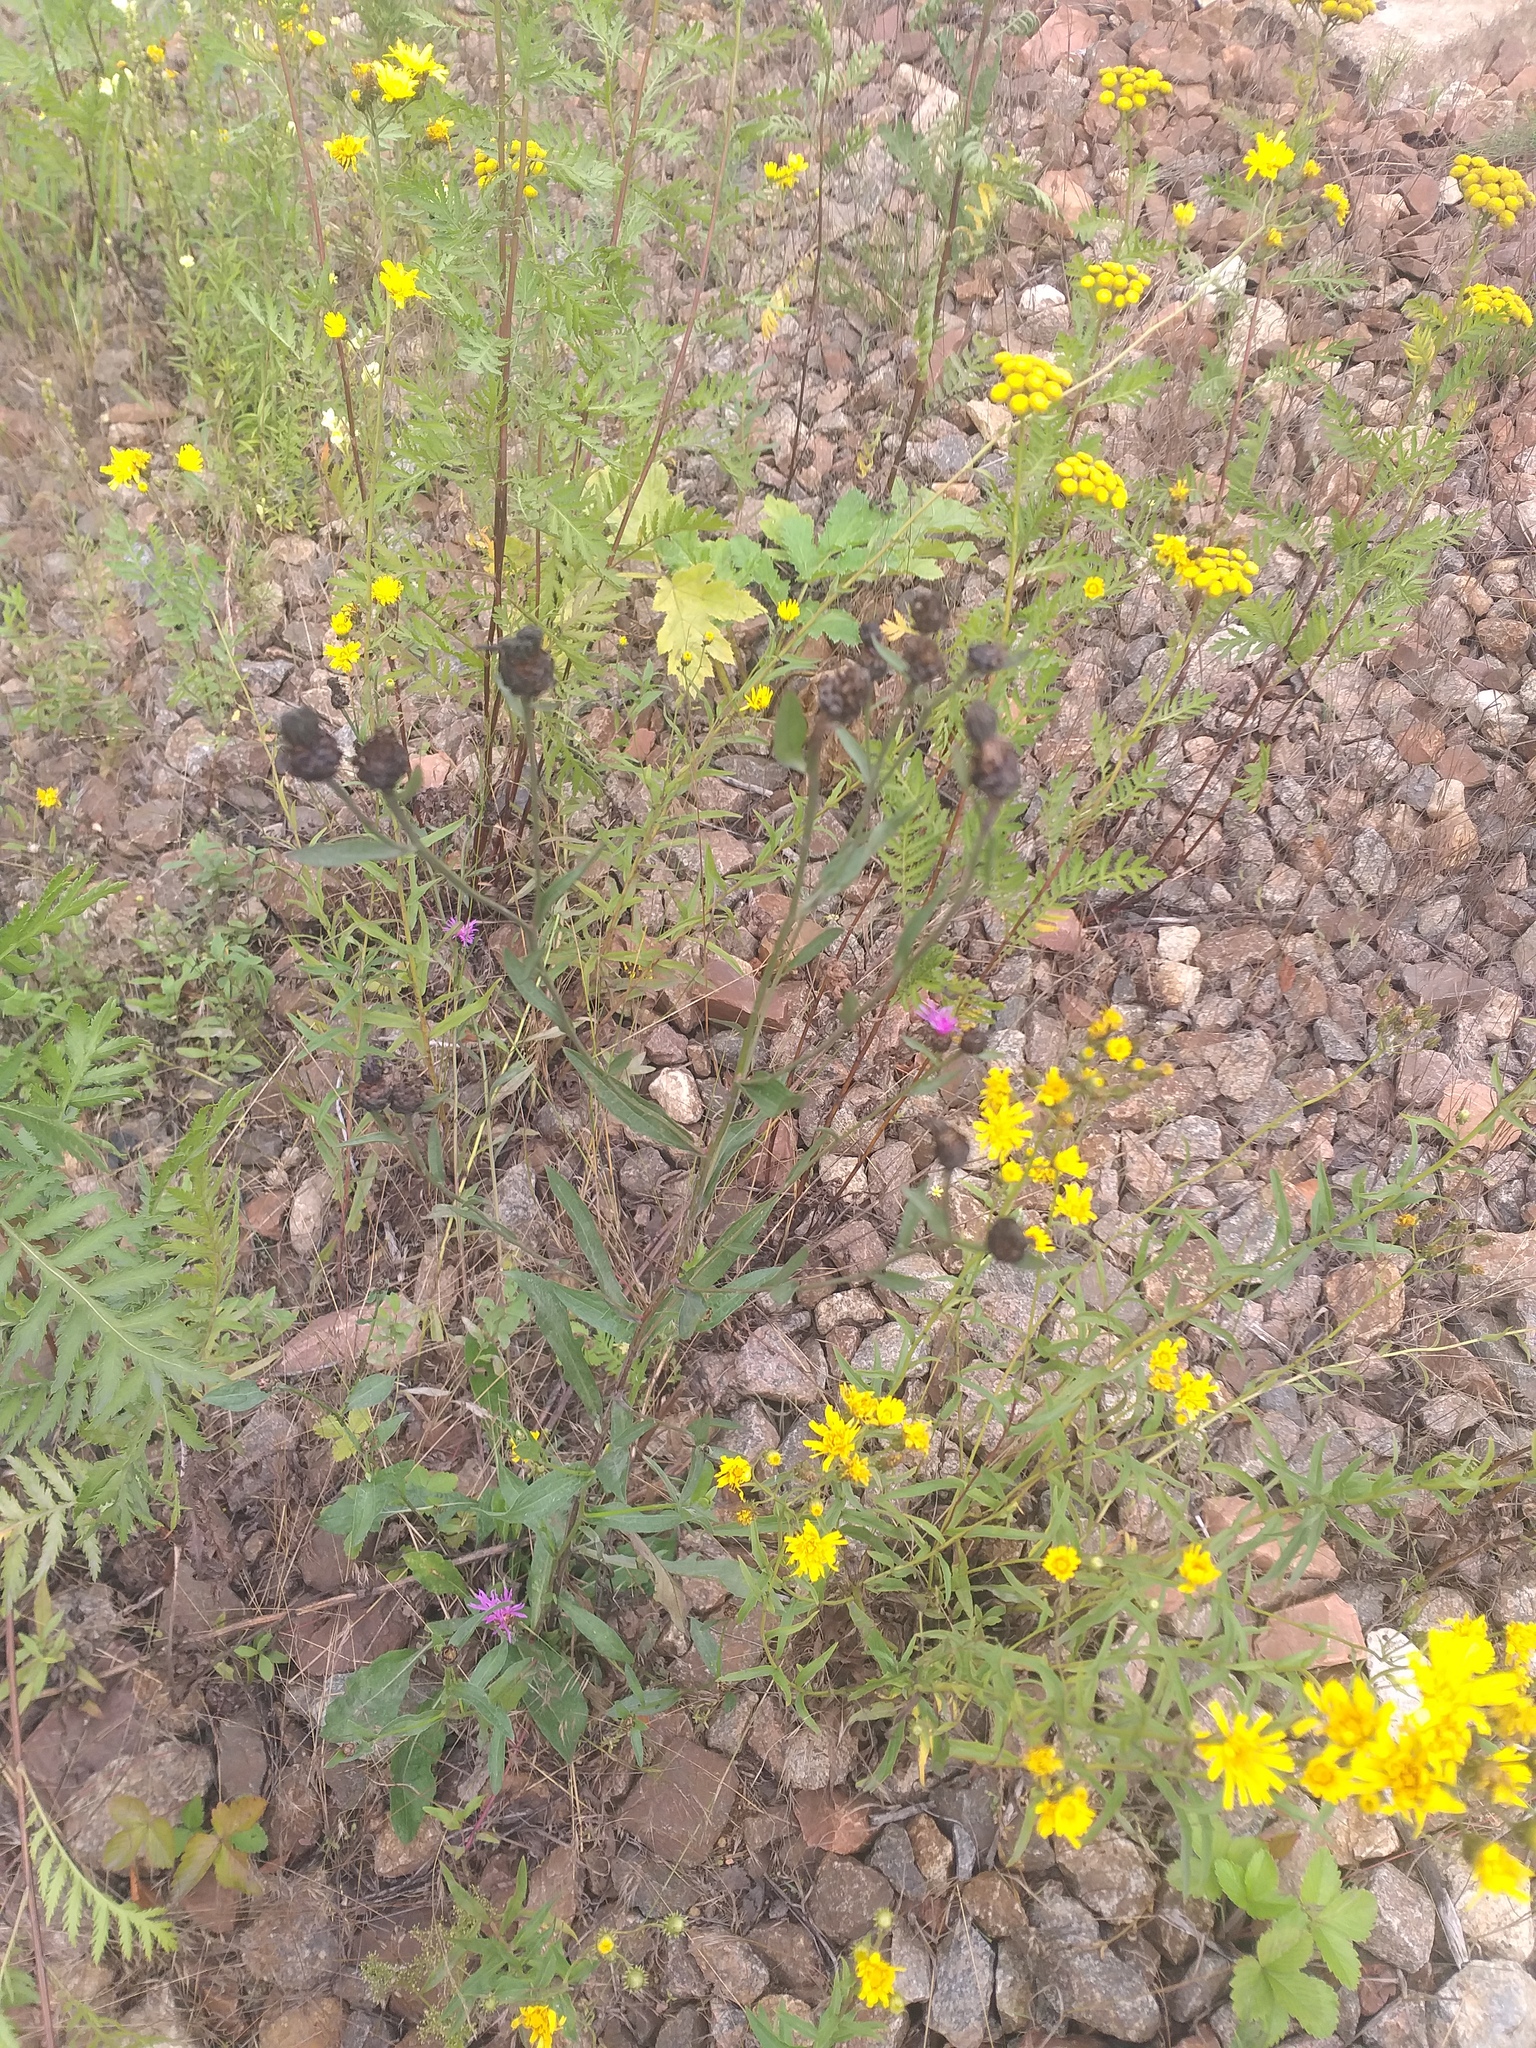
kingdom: Plantae
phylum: Tracheophyta
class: Magnoliopsida
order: Asterales
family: Asteraceae
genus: Centaurea
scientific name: Centaurea jacea
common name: Brown knapweed
